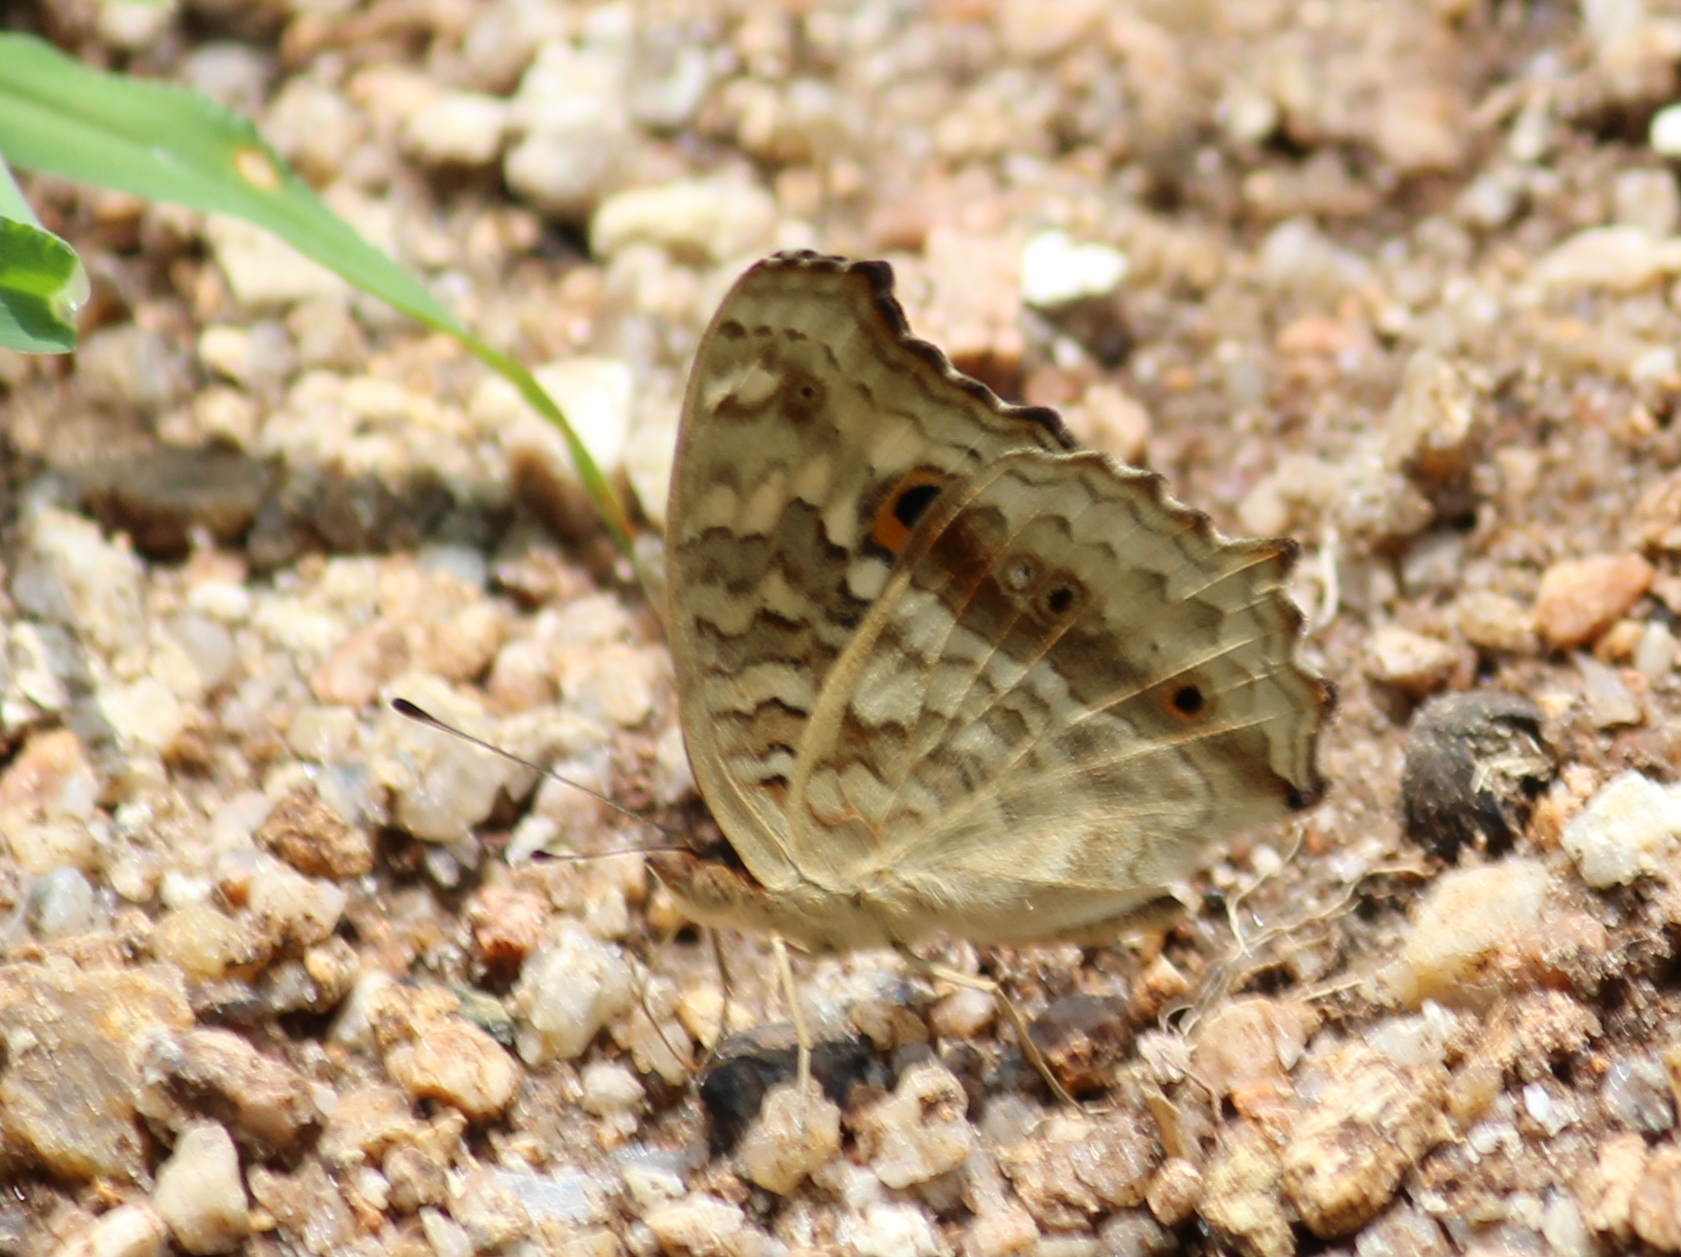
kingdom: Animalia
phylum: Arthropoda
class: Insecta
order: Lepidoptera
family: Nymphalidae
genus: Junonia
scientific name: Junonia lemonias
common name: Lemon pansy
